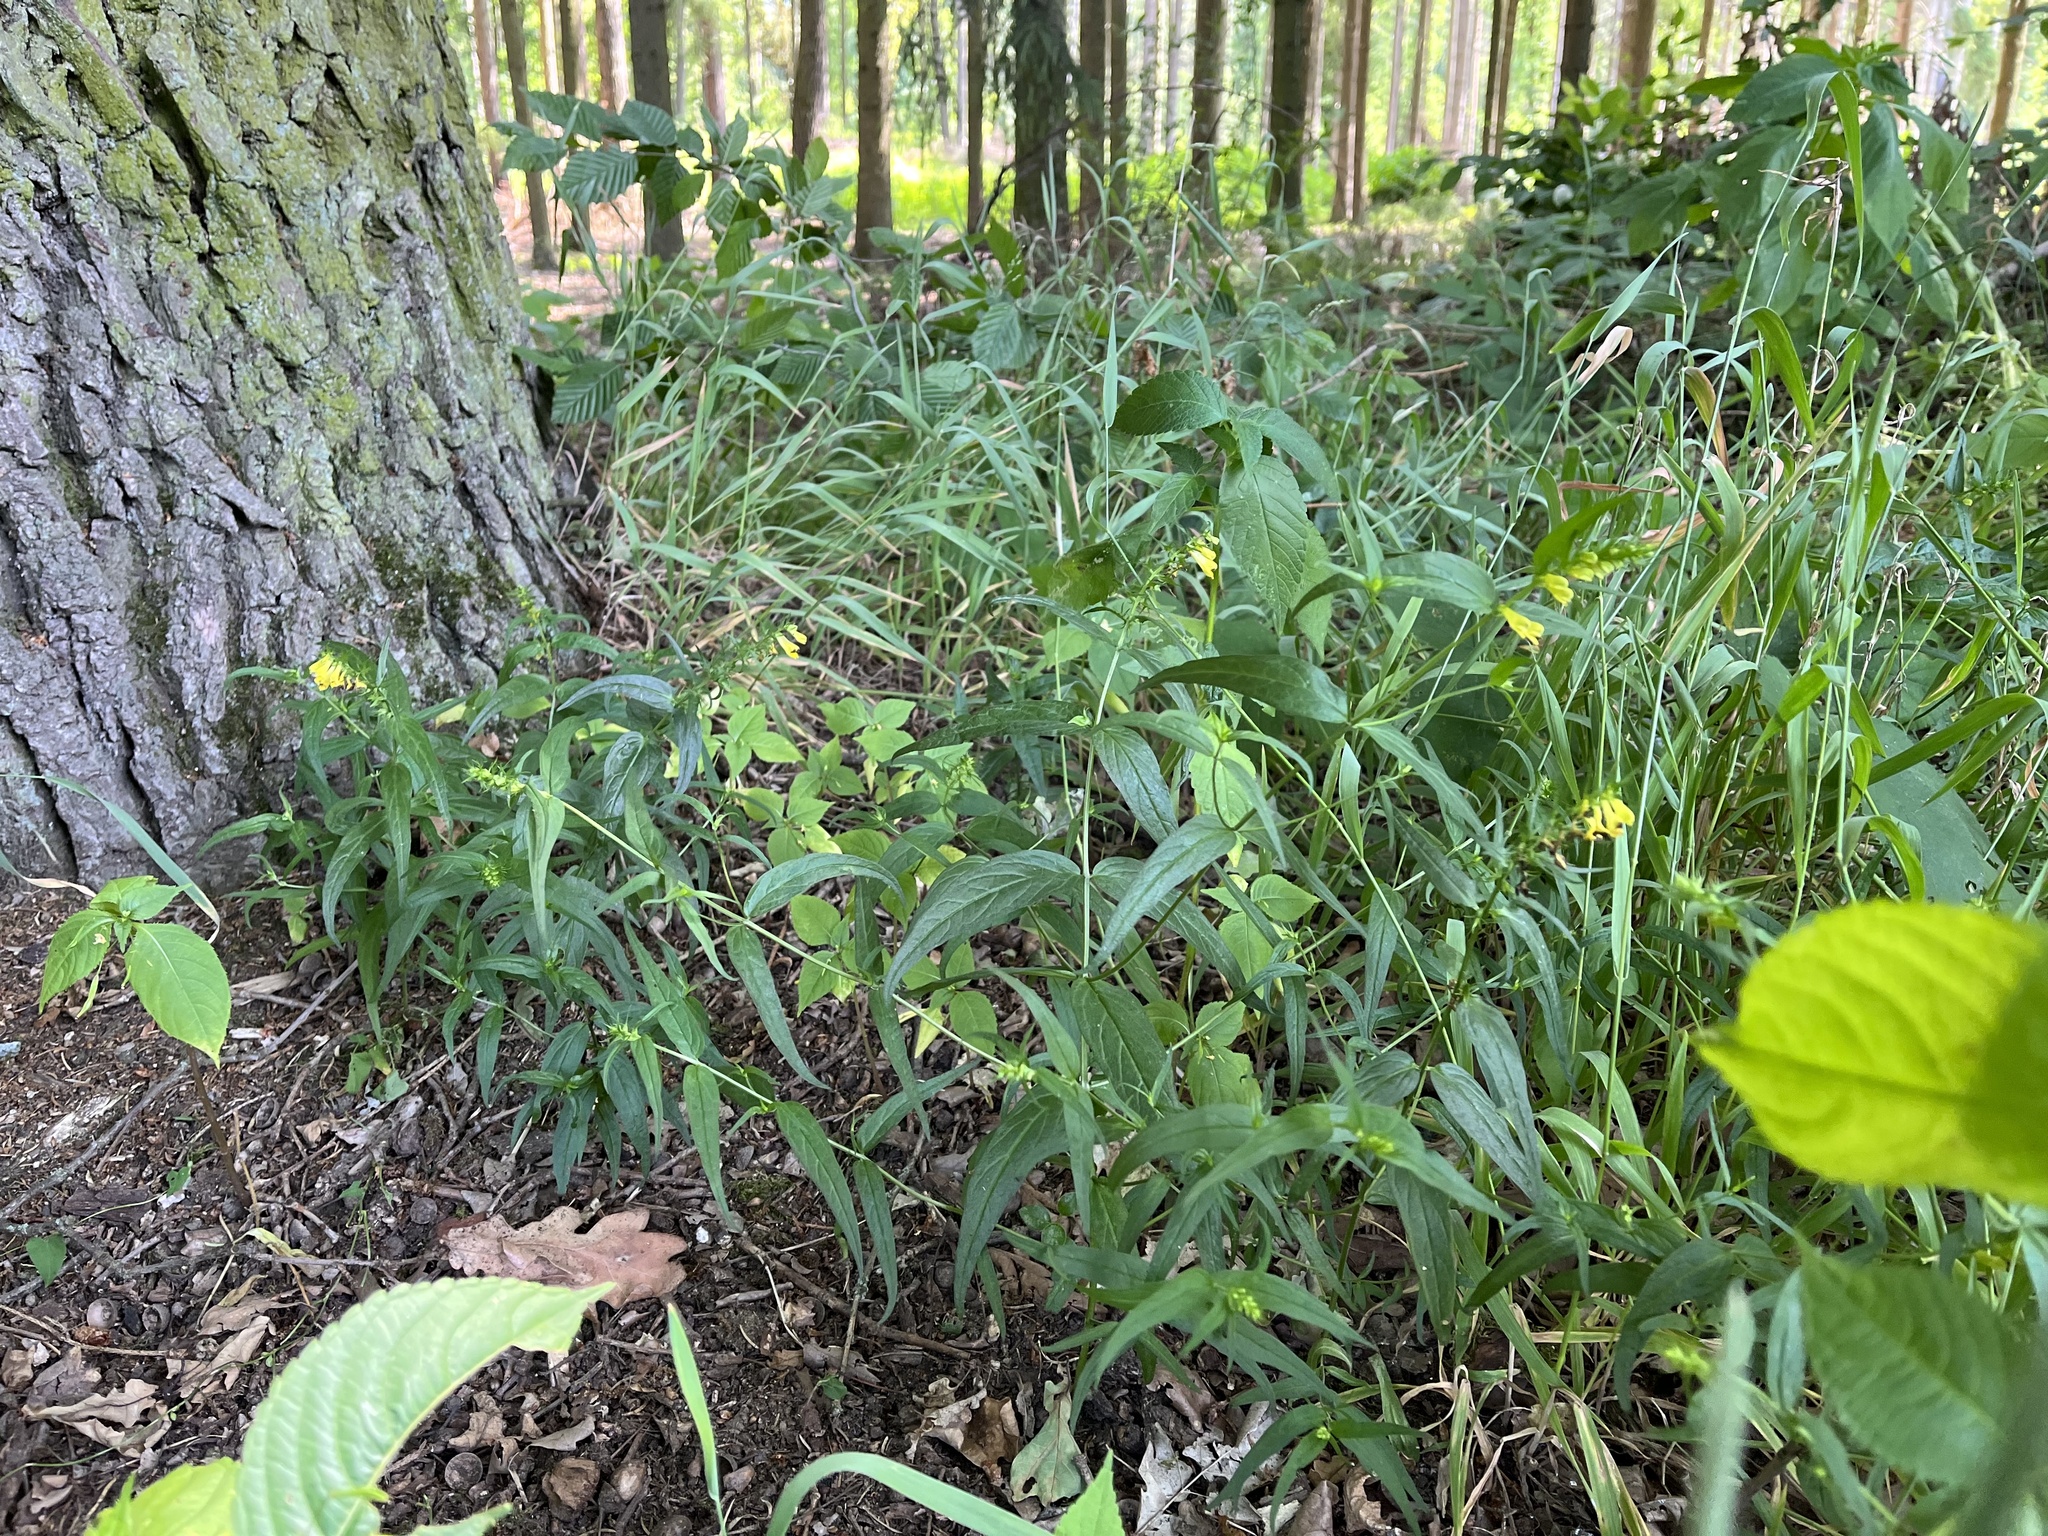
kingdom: Plantae
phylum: Tracheophyta
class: Magnoliopsida
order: Lamiales
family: Orobanchaceae
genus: Melampyrum
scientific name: Melampyrum pratense
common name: Common cow-wheat
